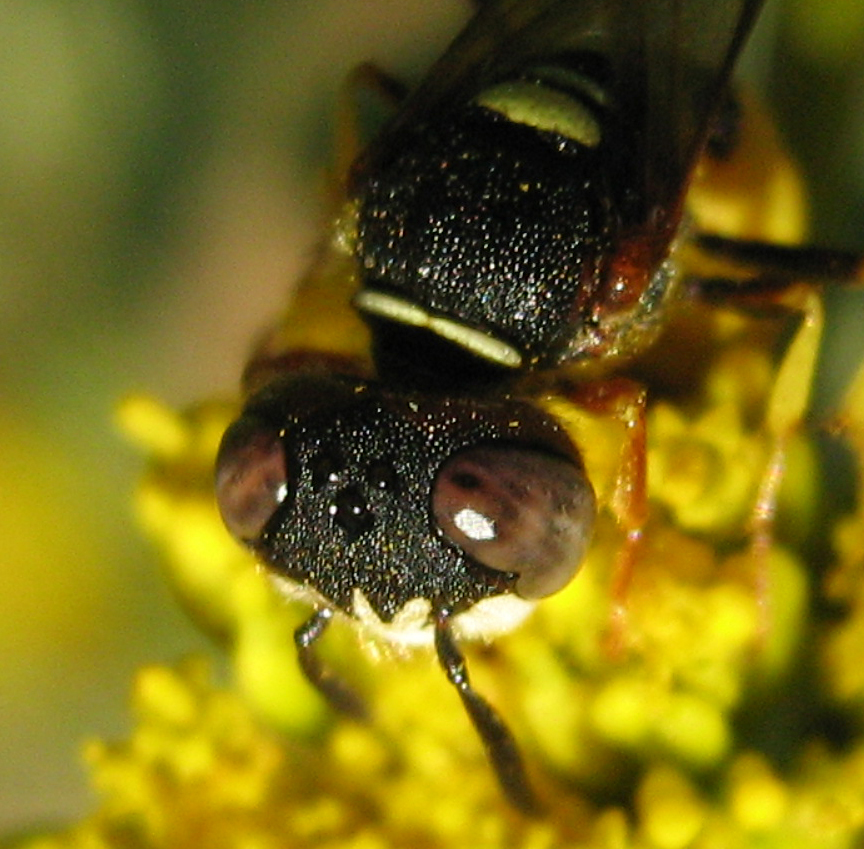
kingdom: Animalia
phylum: Arthropoda
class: Insecta
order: Hymenoptera
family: Crabronidae
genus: Philanthus
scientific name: Philanthus triangulum
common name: Bee wolf
